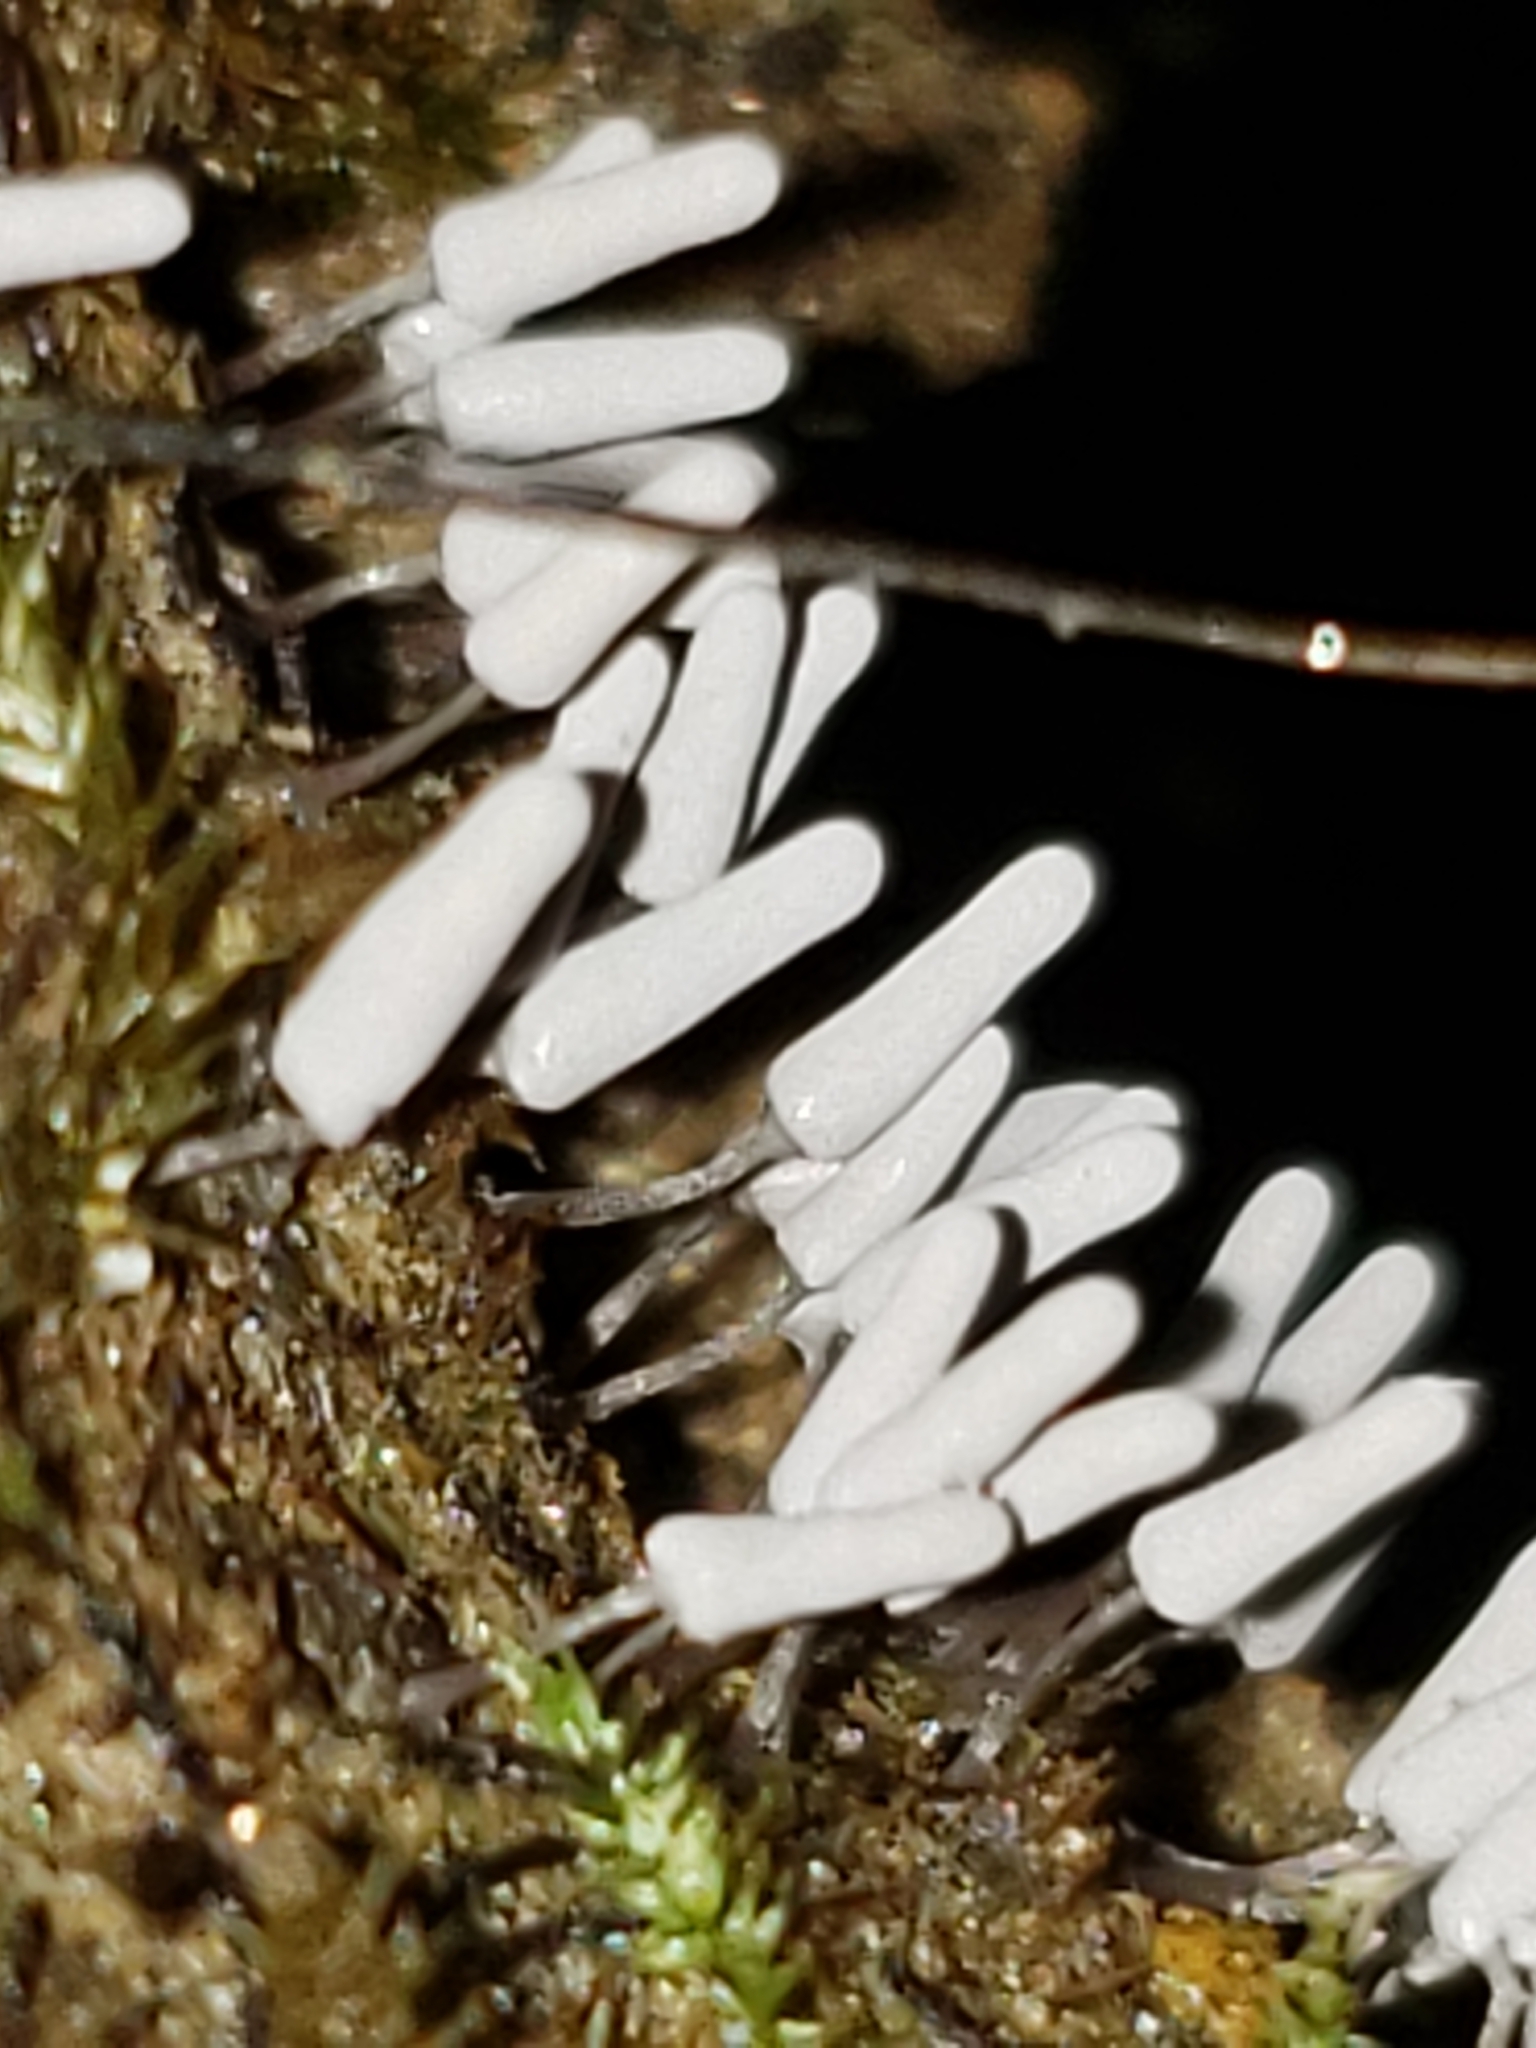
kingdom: Protozoa
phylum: Mycetozoa
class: Myxomycetes
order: Trichiales
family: Arcyriaceae
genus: Arcyria
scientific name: Arcyria cinerea
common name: White carnival candy slime mold
